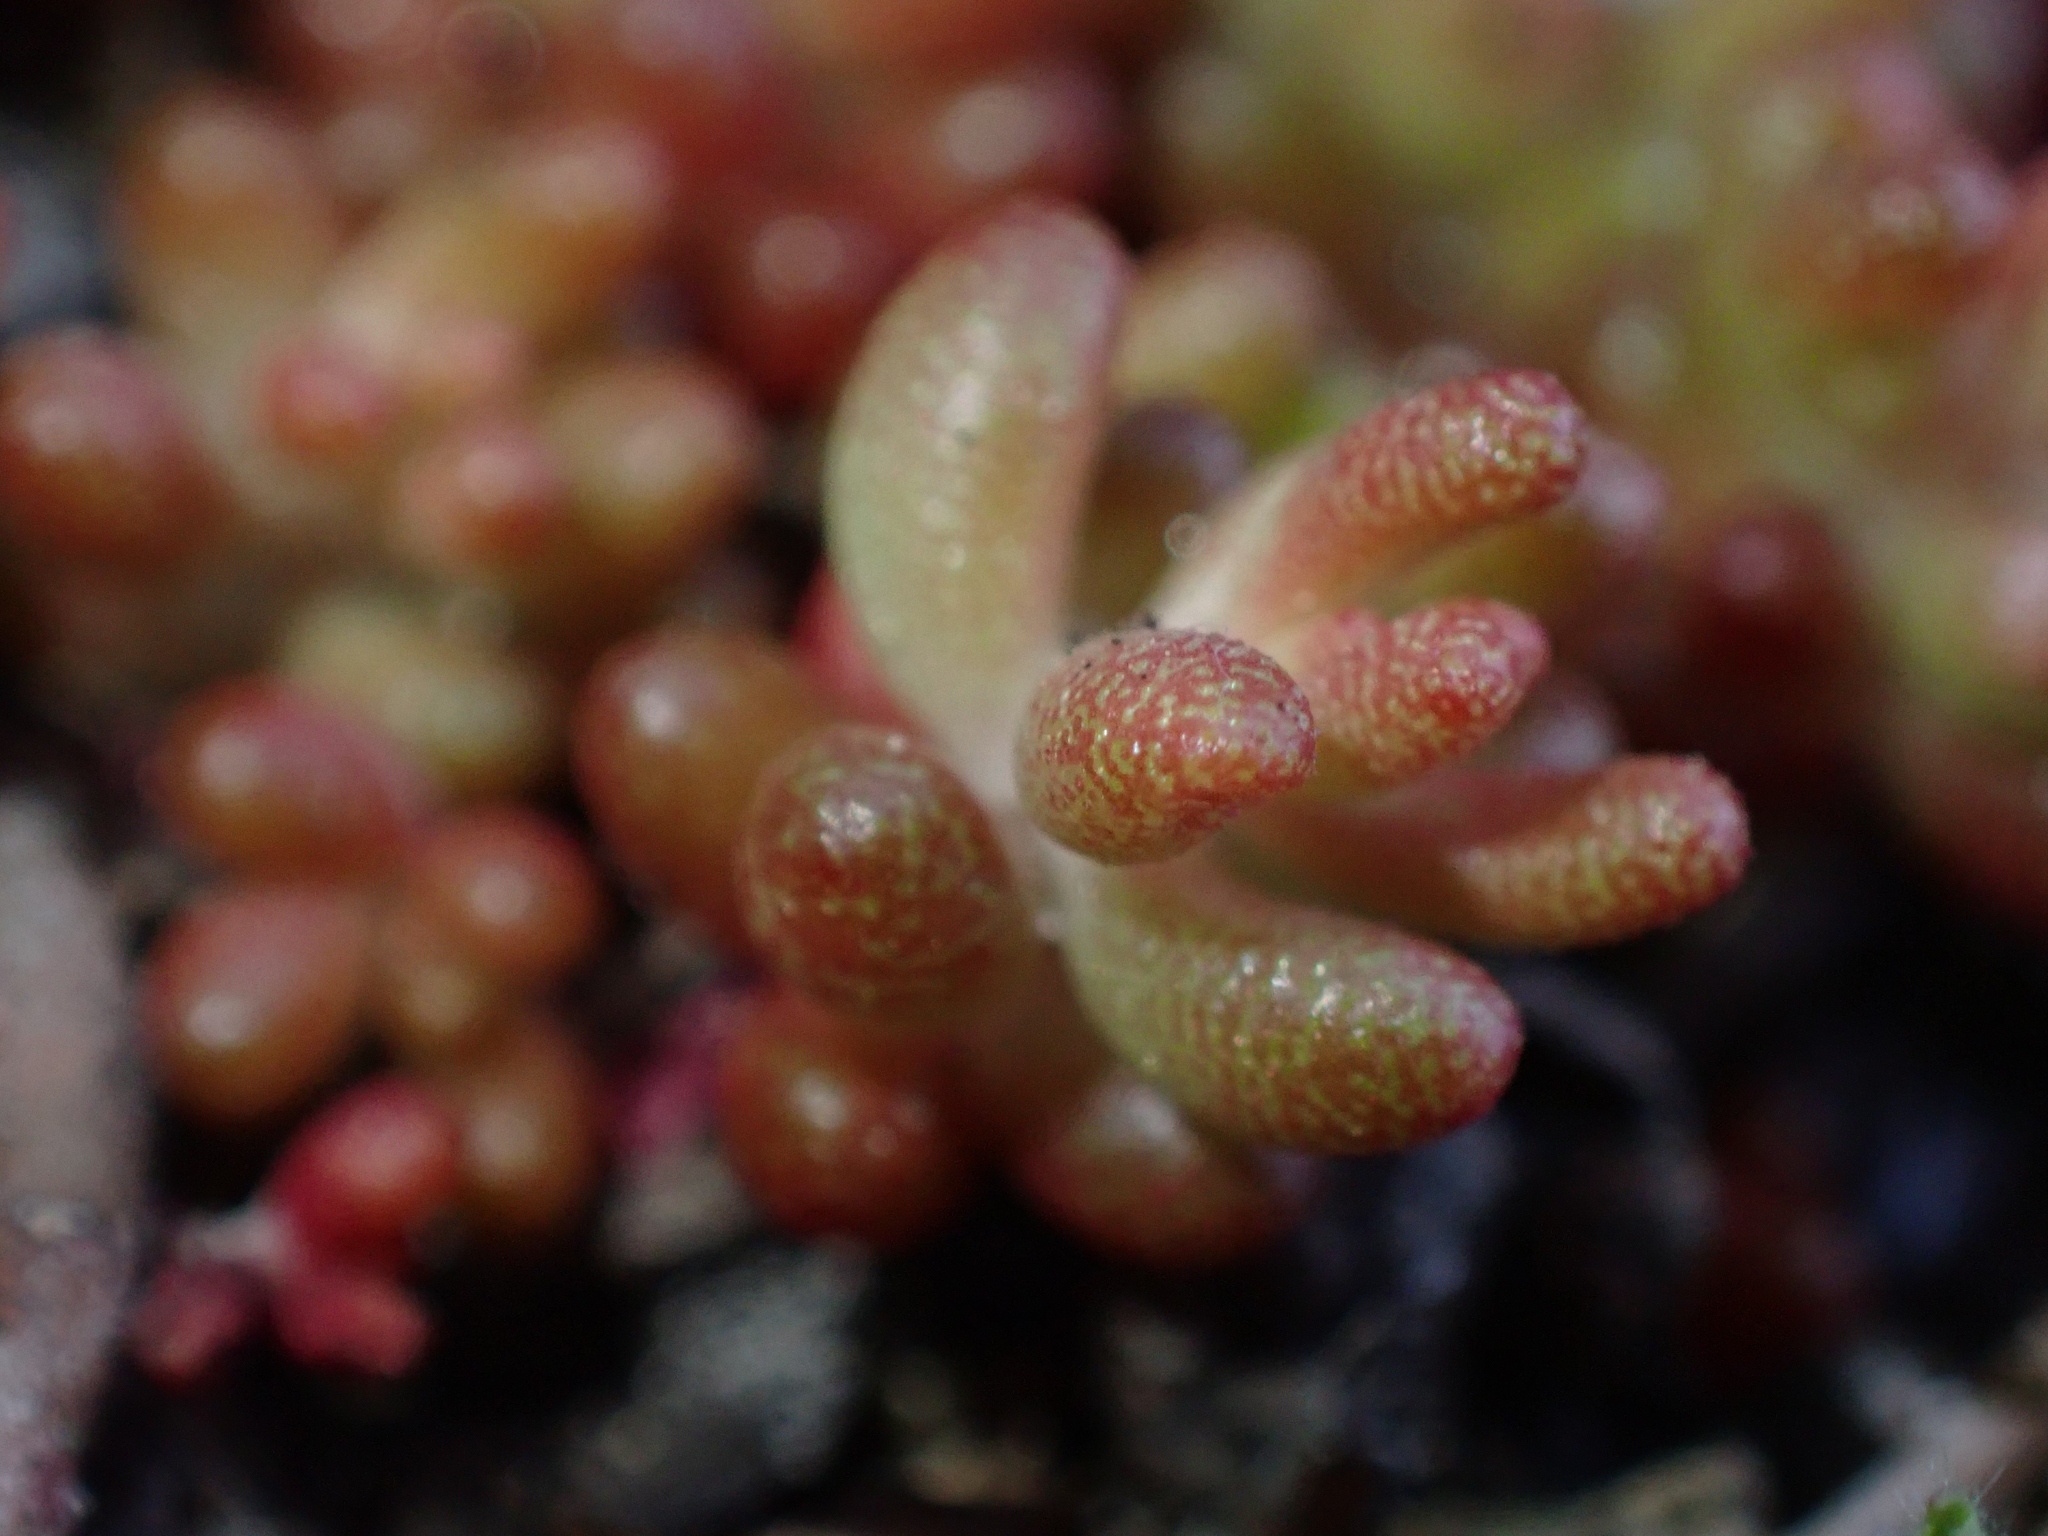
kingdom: Plantae
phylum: Tracheophyta
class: Magnoliopsida
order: Saxifragales
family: Crassulaceae
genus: Sedum
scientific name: Sedum album
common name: White stonecrop
